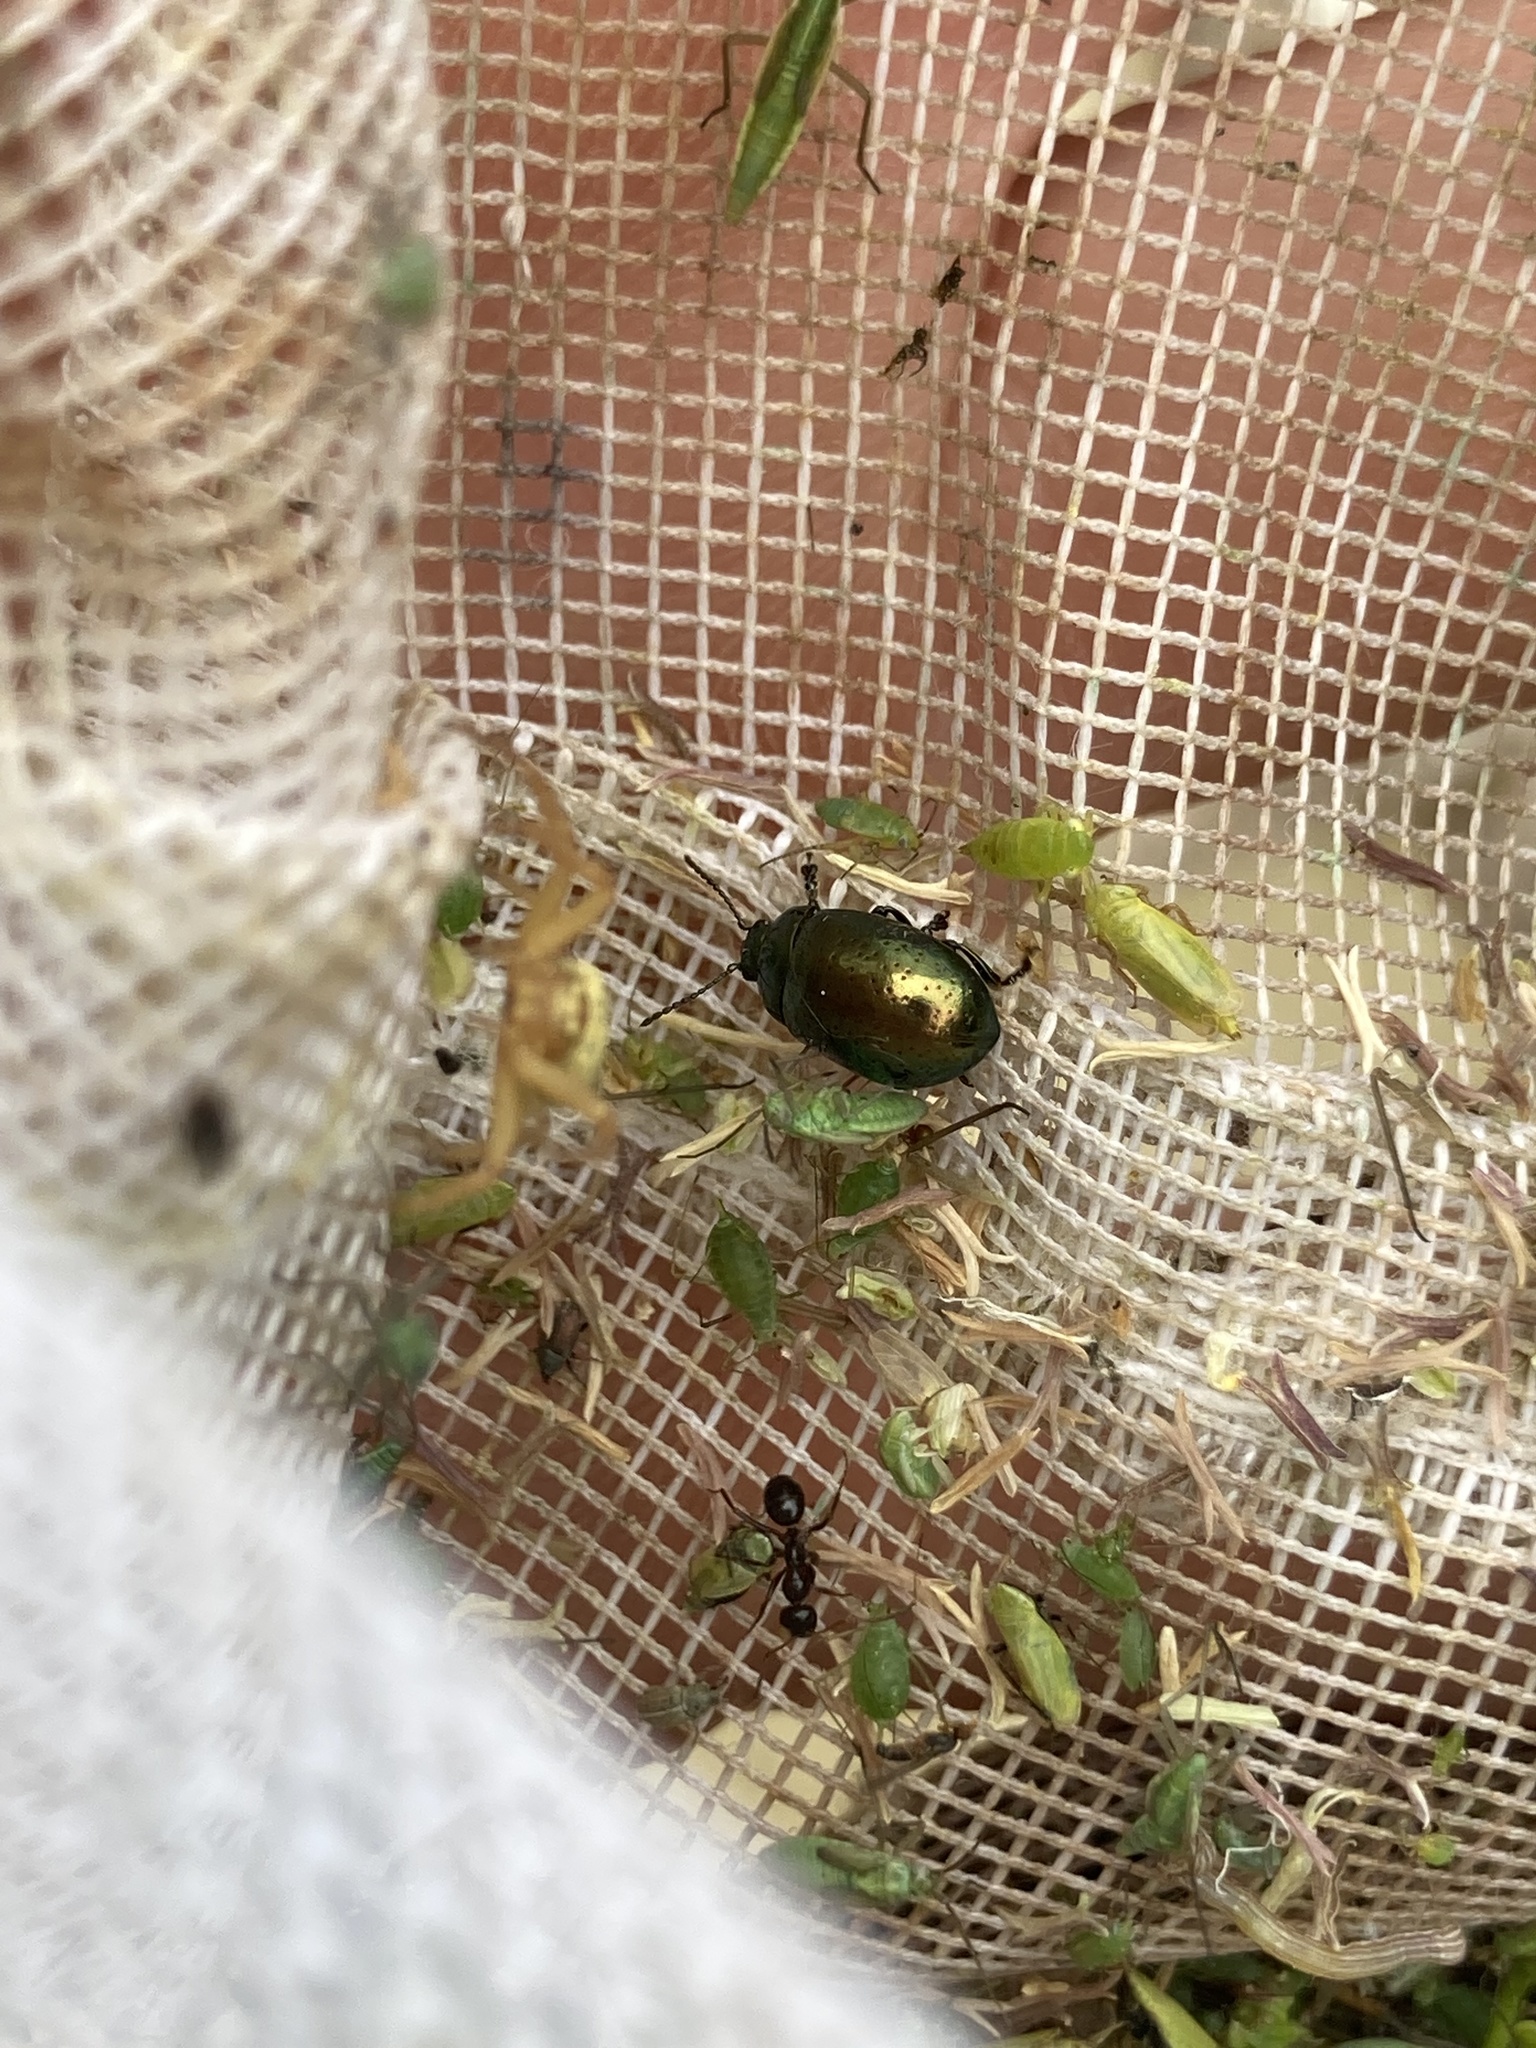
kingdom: Animalia
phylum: Arthropoda
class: Insecta
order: Coleoptera
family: Chrysomelidae
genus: Chrysolina
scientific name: Chrysolina hyperici
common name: St. johnswort beetle
